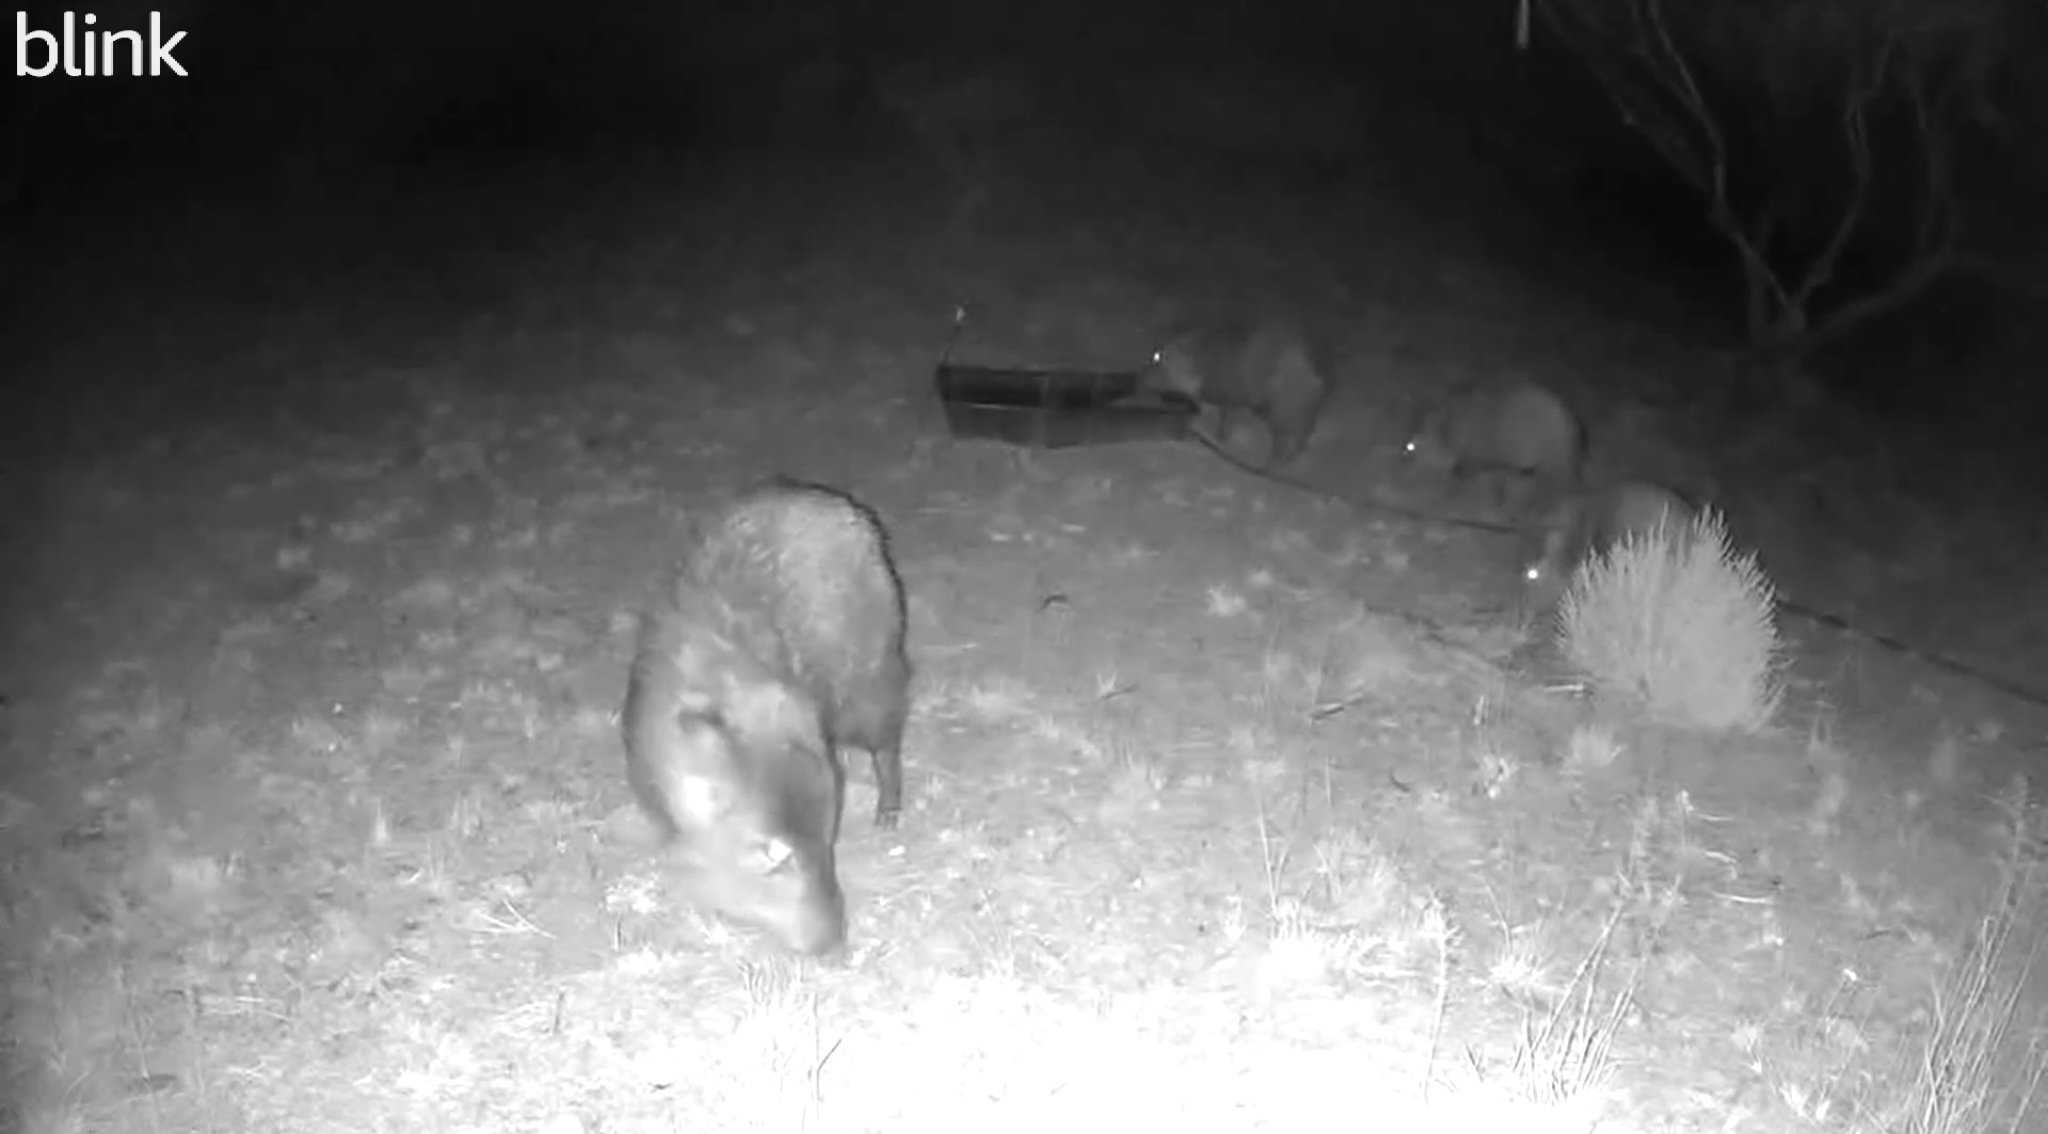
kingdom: Animalia
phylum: Chordata
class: Mammalia
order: Artiodactyla
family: Tayassuidae
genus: Pecari
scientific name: Pecari tajacu
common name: Collared peccary
